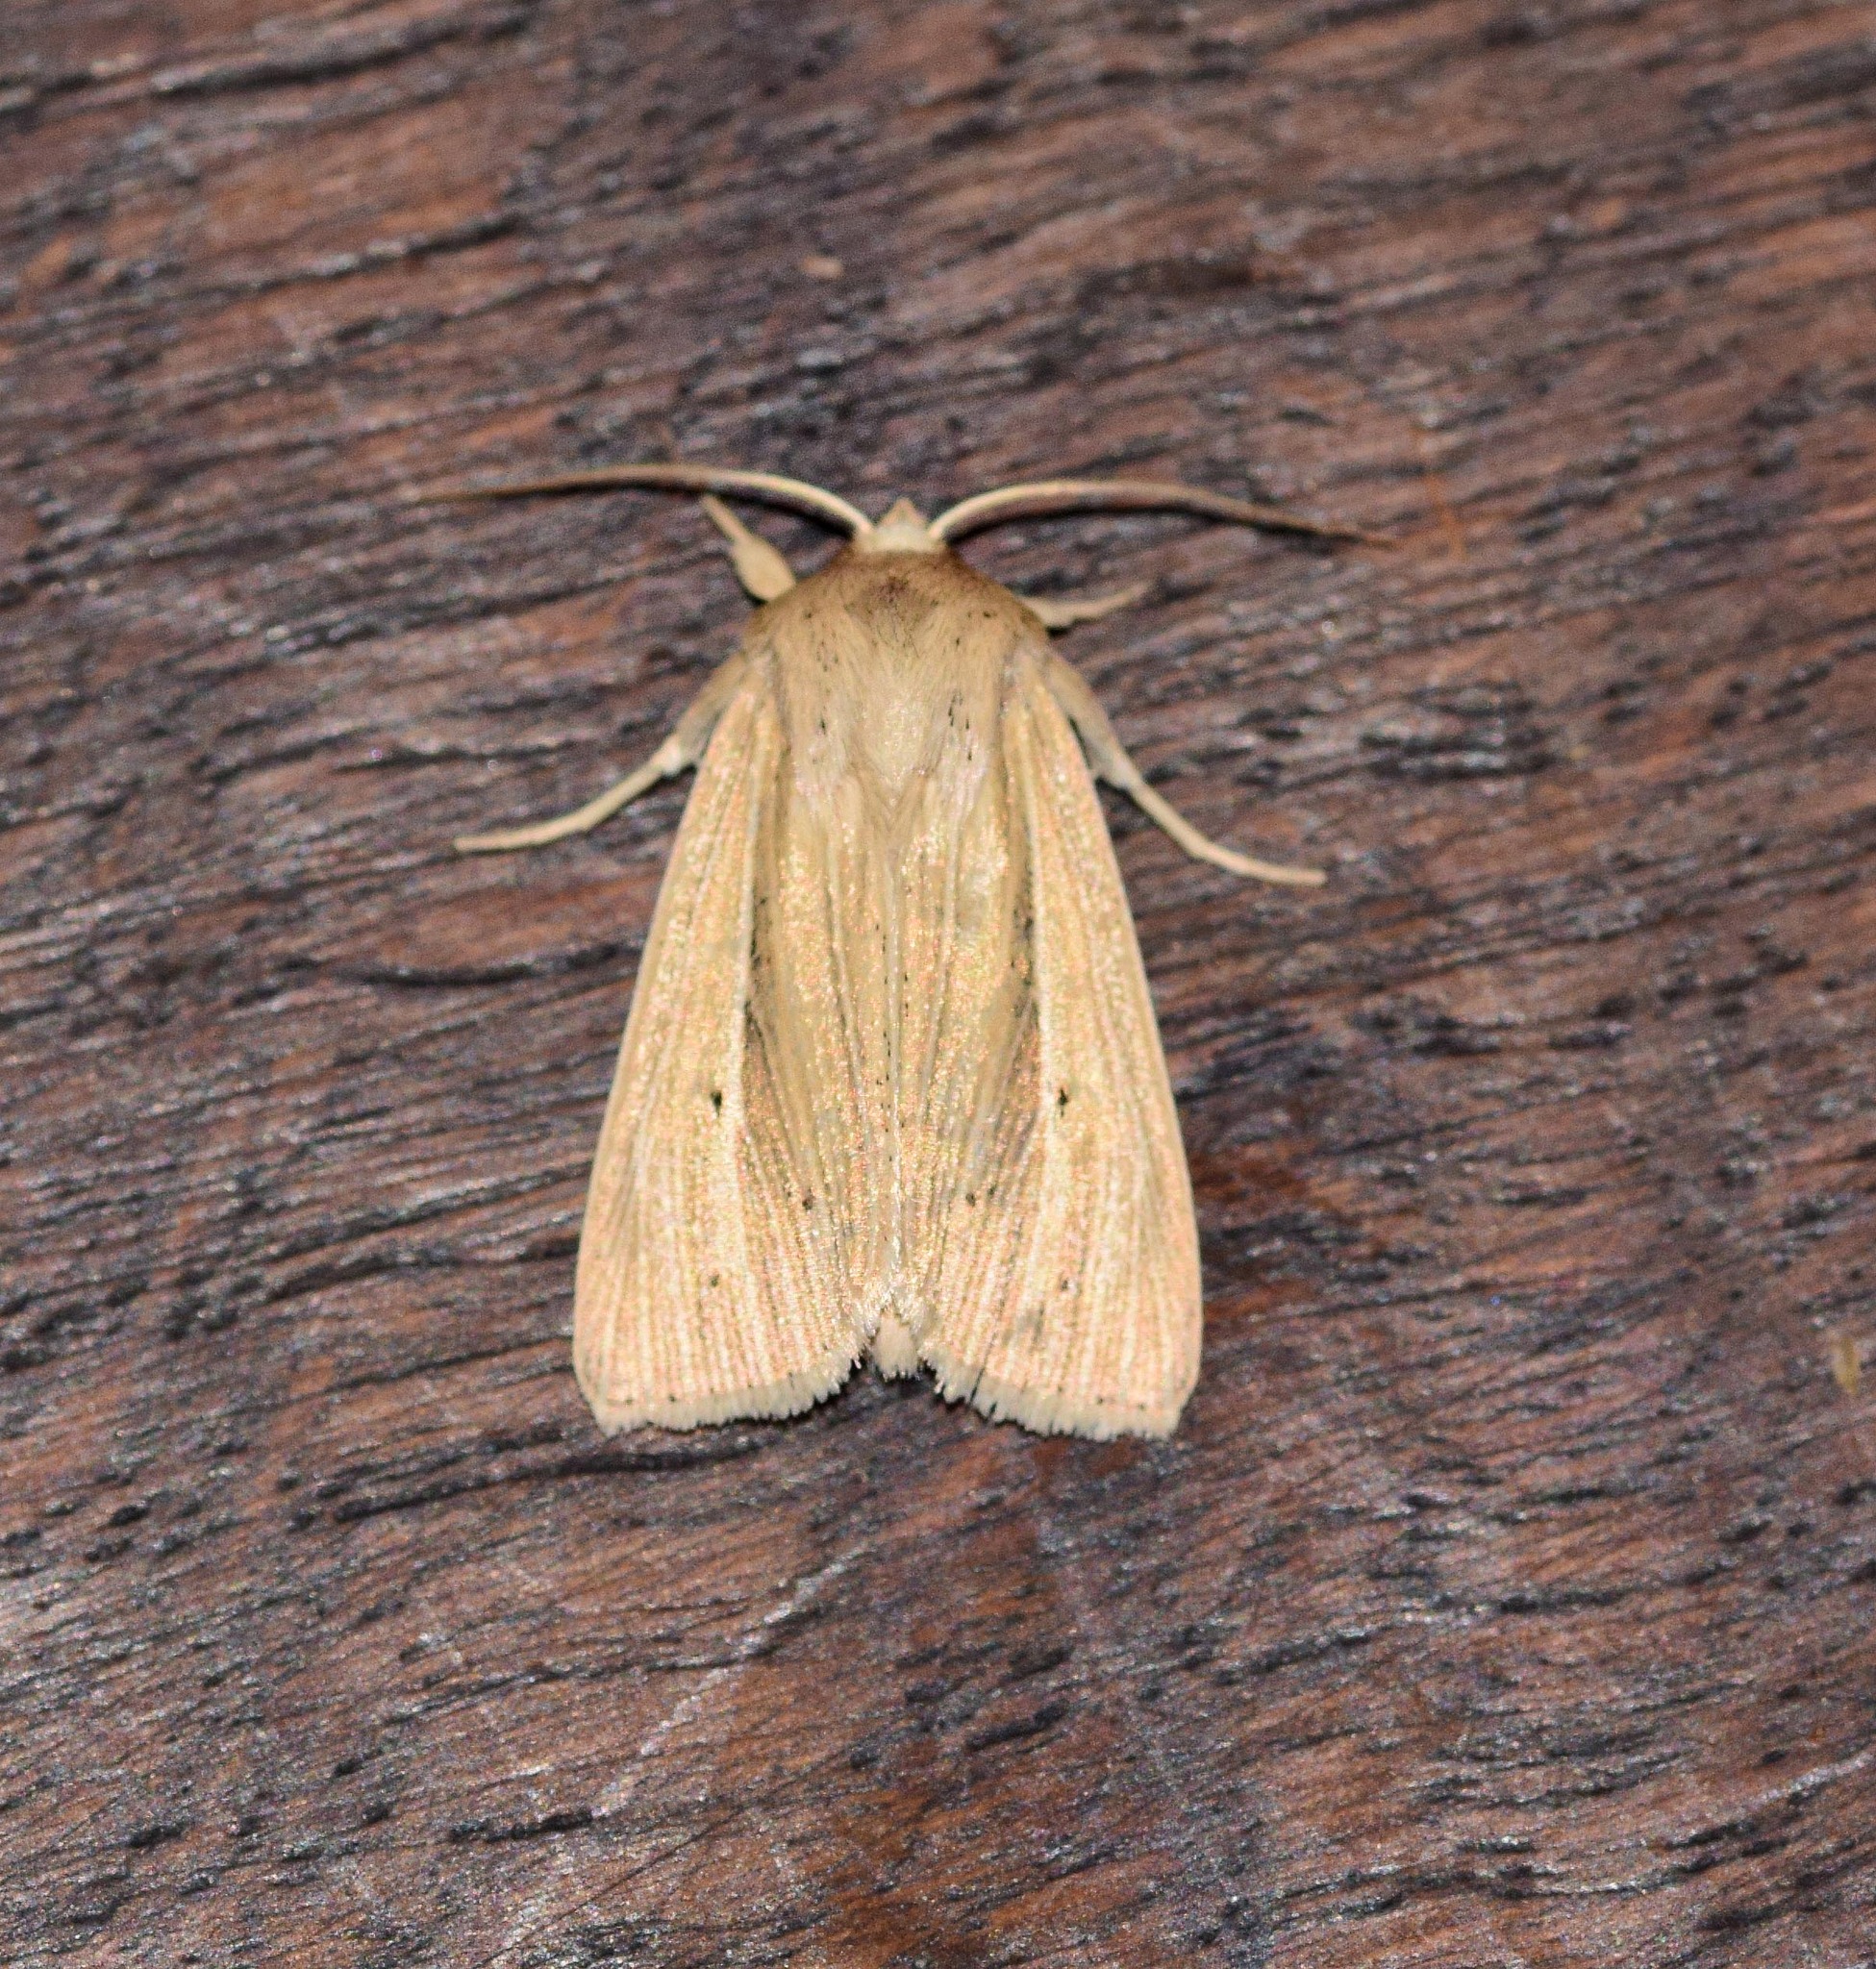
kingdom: Animalia
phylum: Arthropoda
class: Insecta
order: Lepidoptera
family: Noctuidae
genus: Mythimna
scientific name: Mythimna impura
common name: Smoky wainscot
